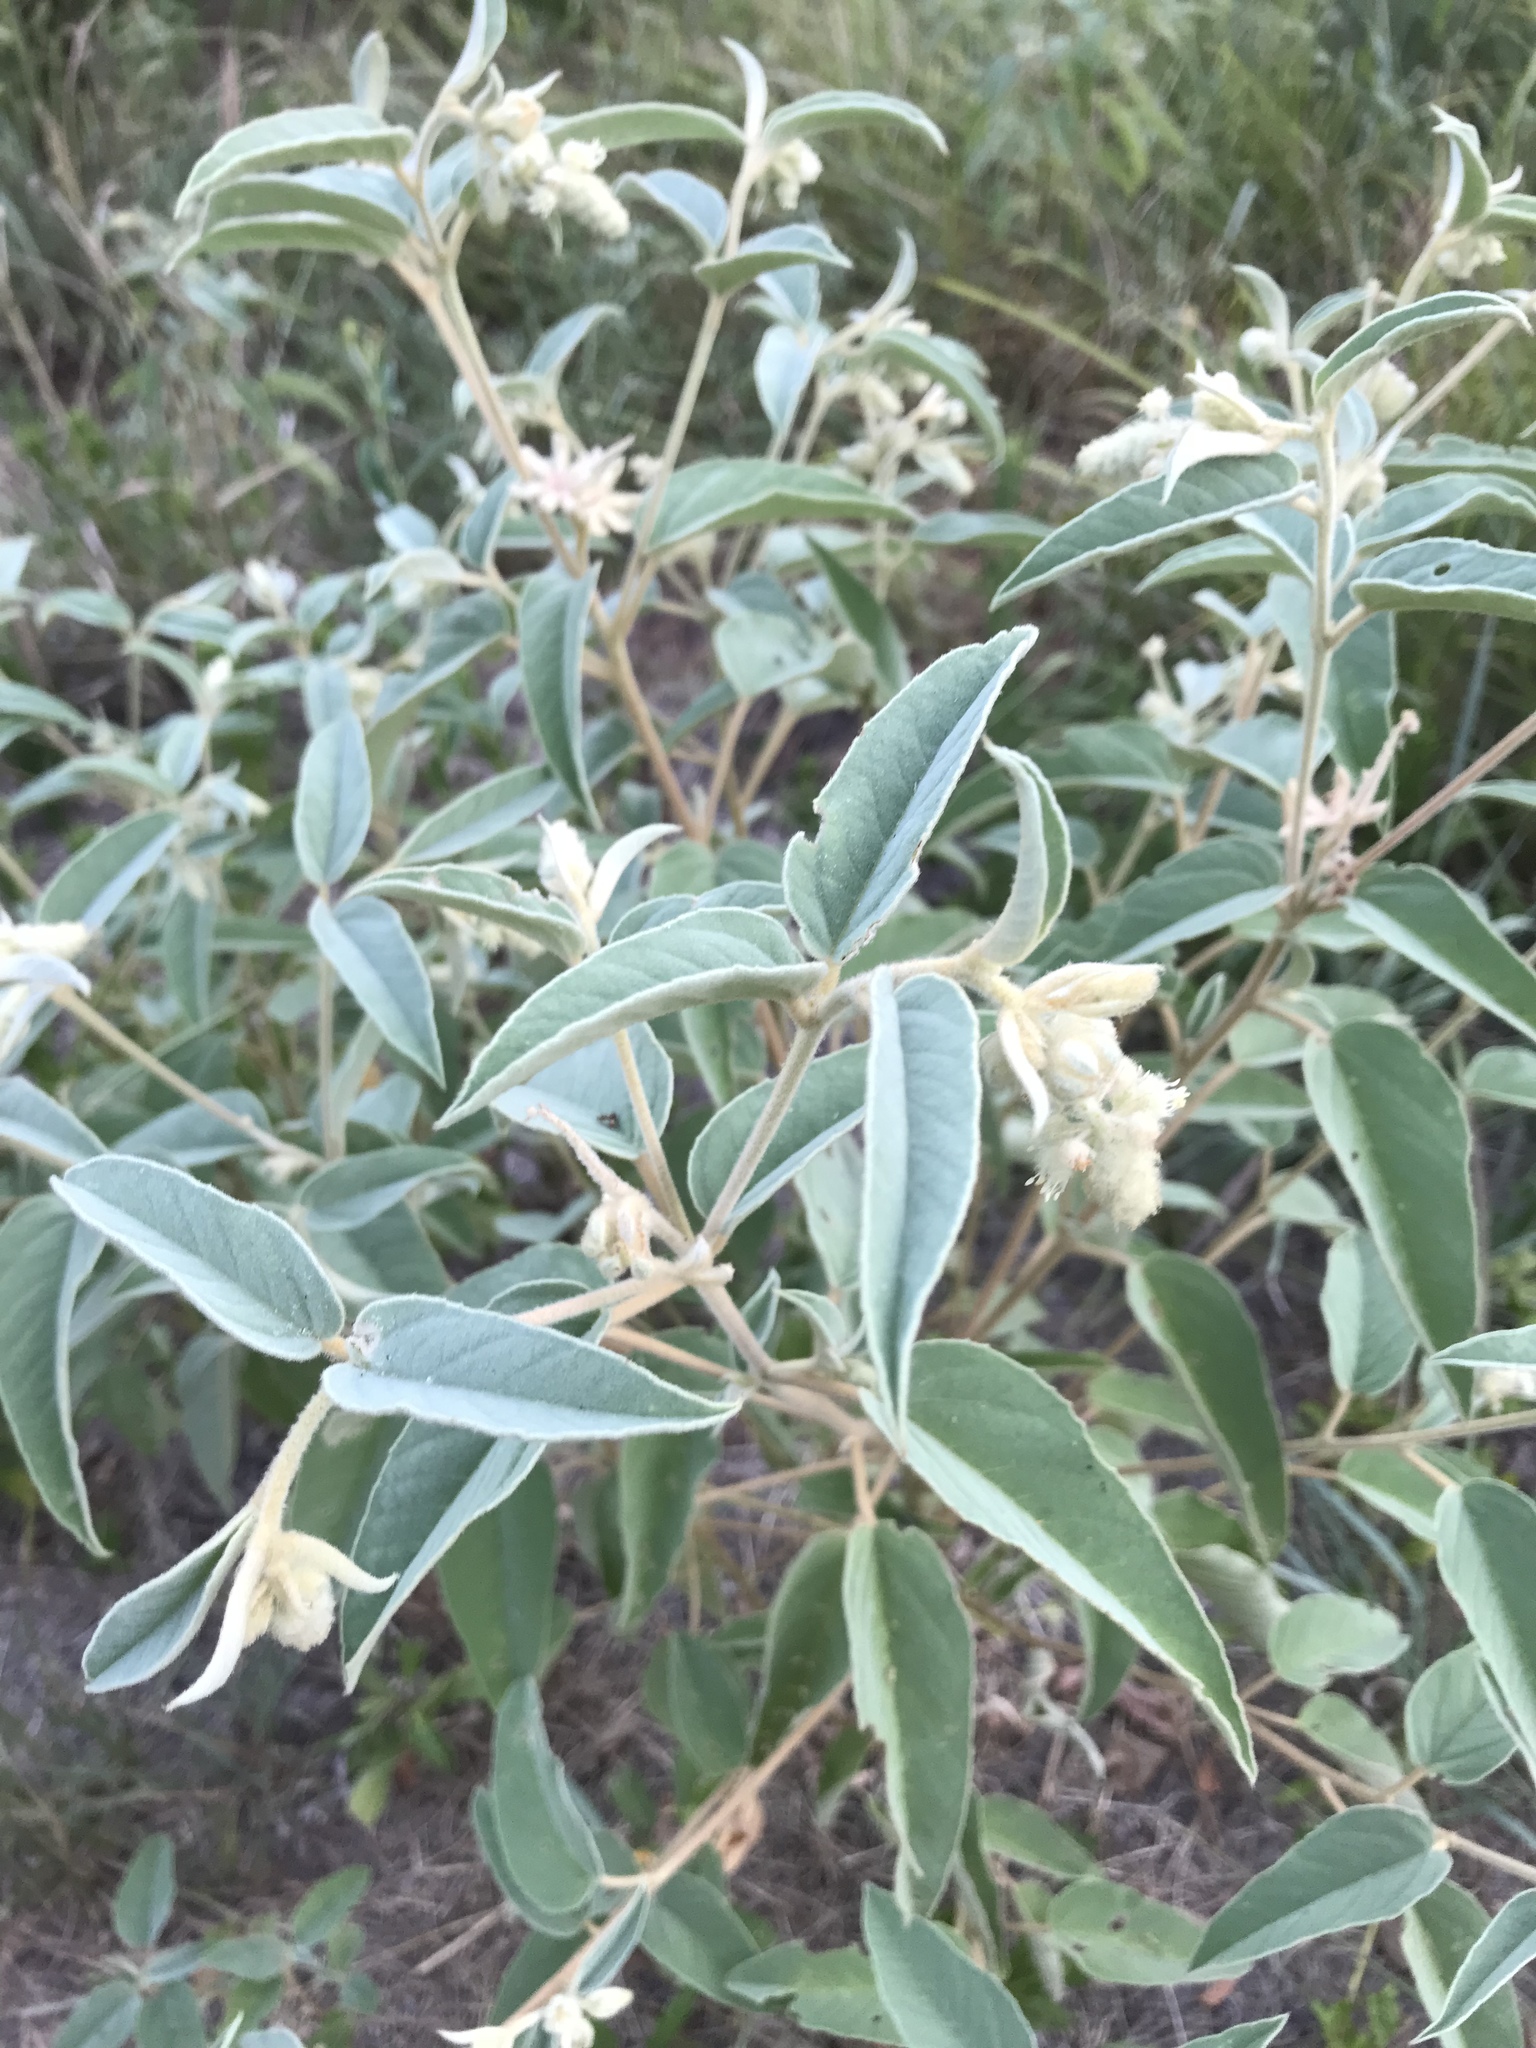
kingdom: Plantae
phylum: Tracheophyta
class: Magnoliopsida
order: Malpighiales
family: Euphorbiaceae
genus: Croton
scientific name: Croton lindheimeri
